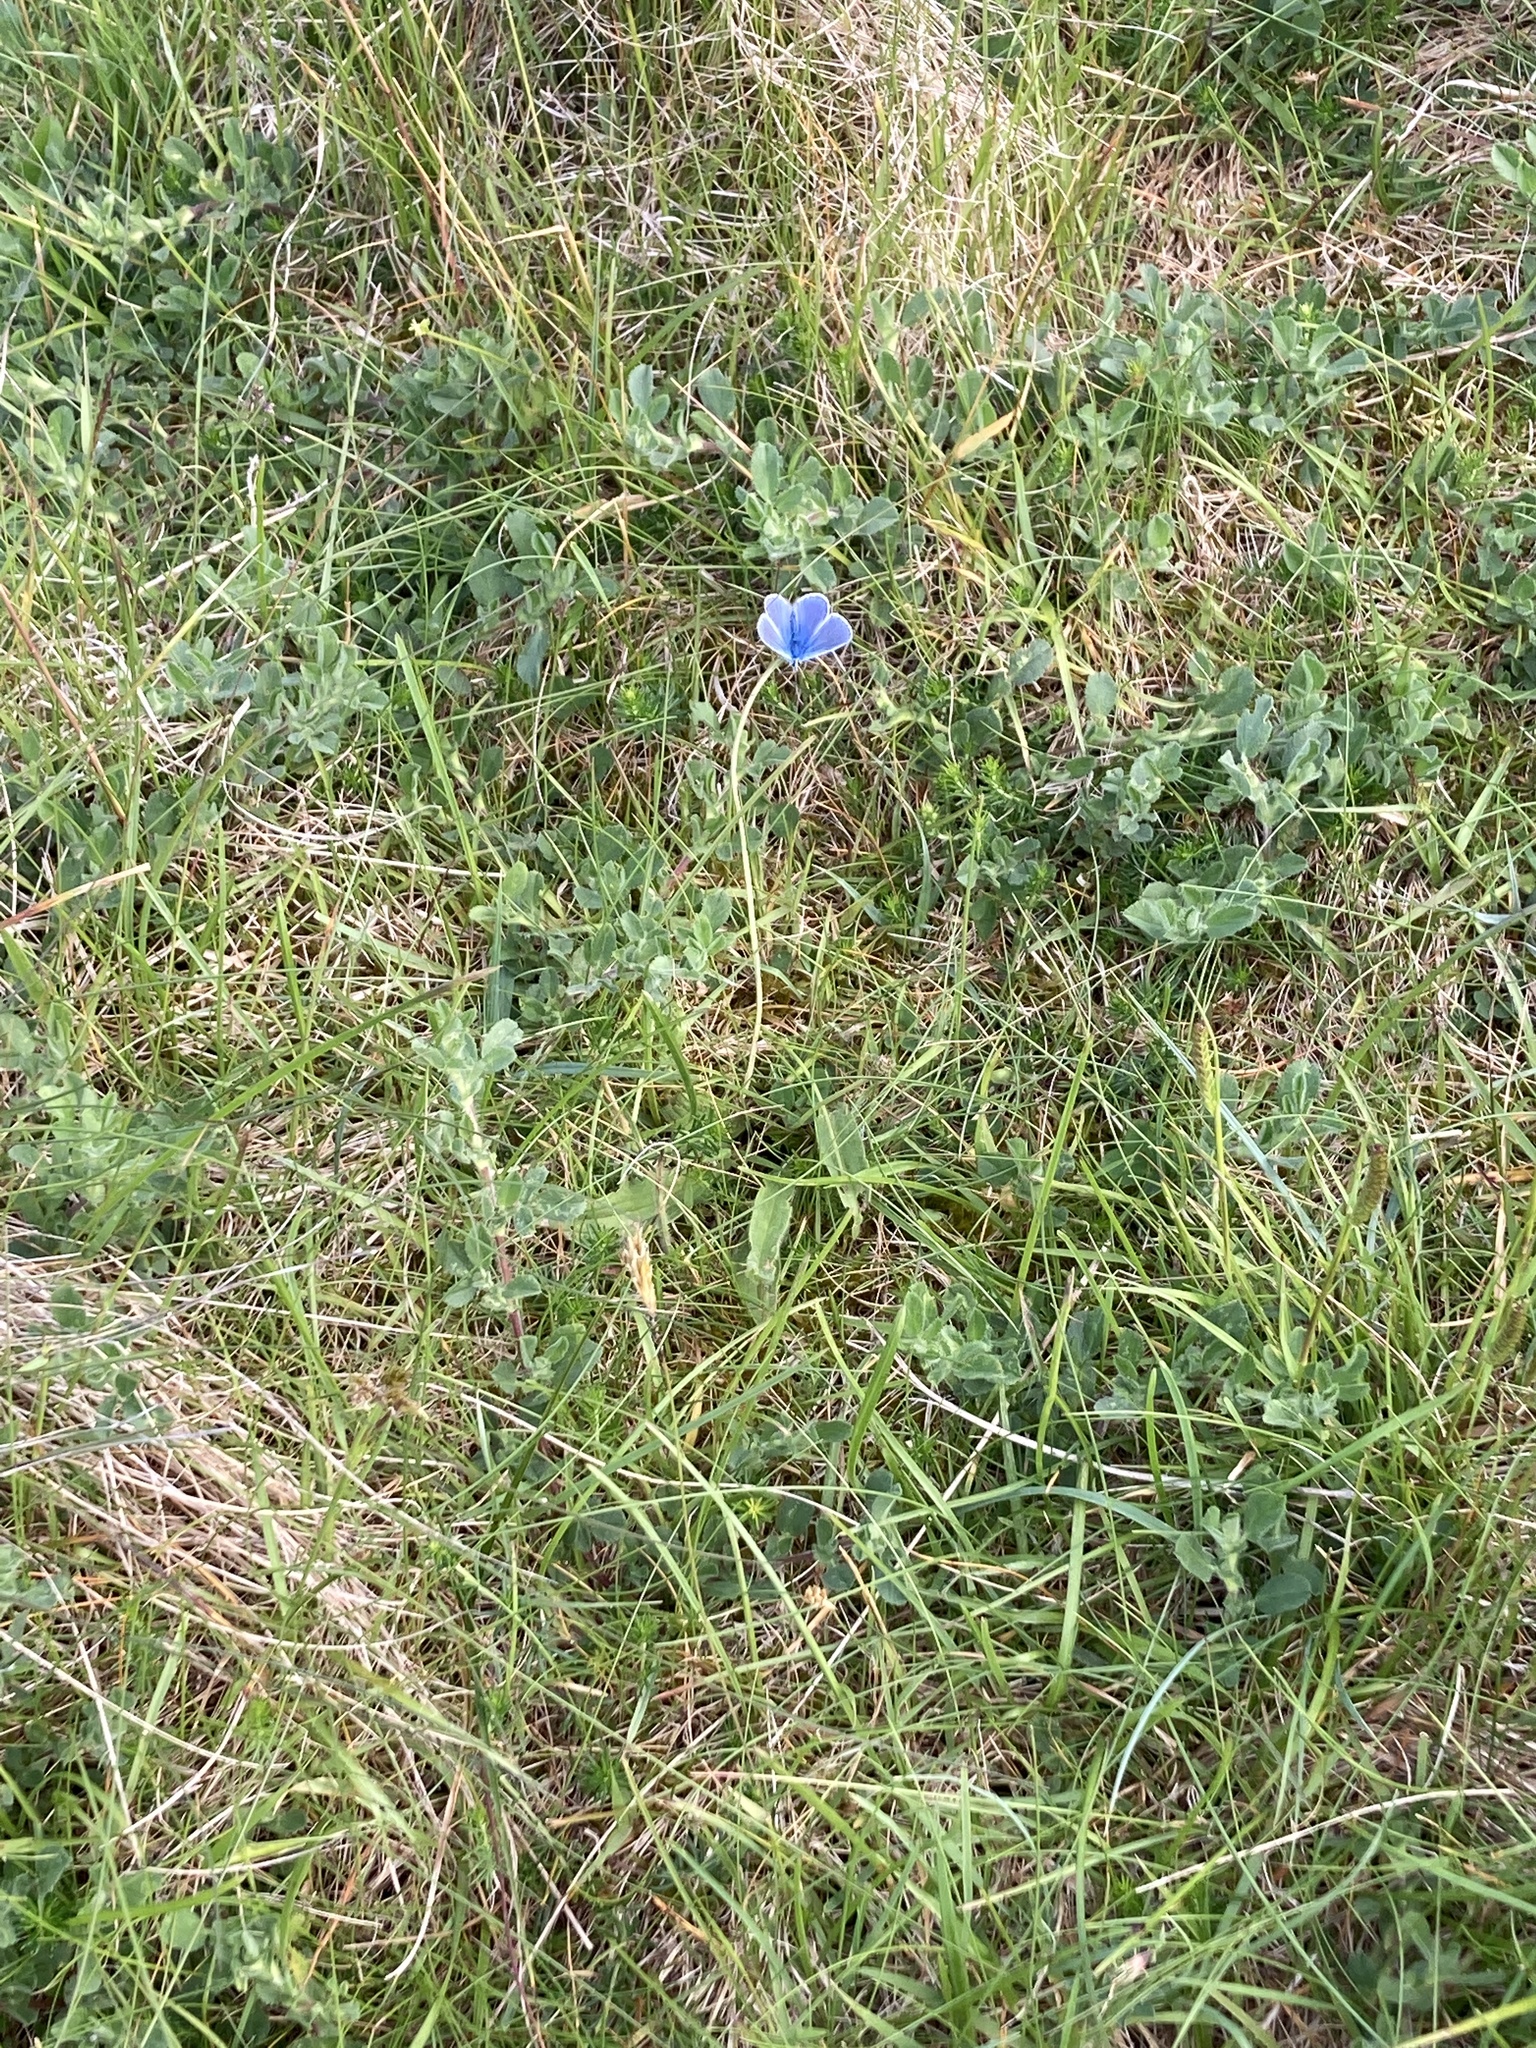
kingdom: Animalia
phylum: Arthropoda
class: Insecta
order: Lepidoptera
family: Lycaenidae
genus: Polyommatus
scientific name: Polyommatus icarus
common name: Common blue
